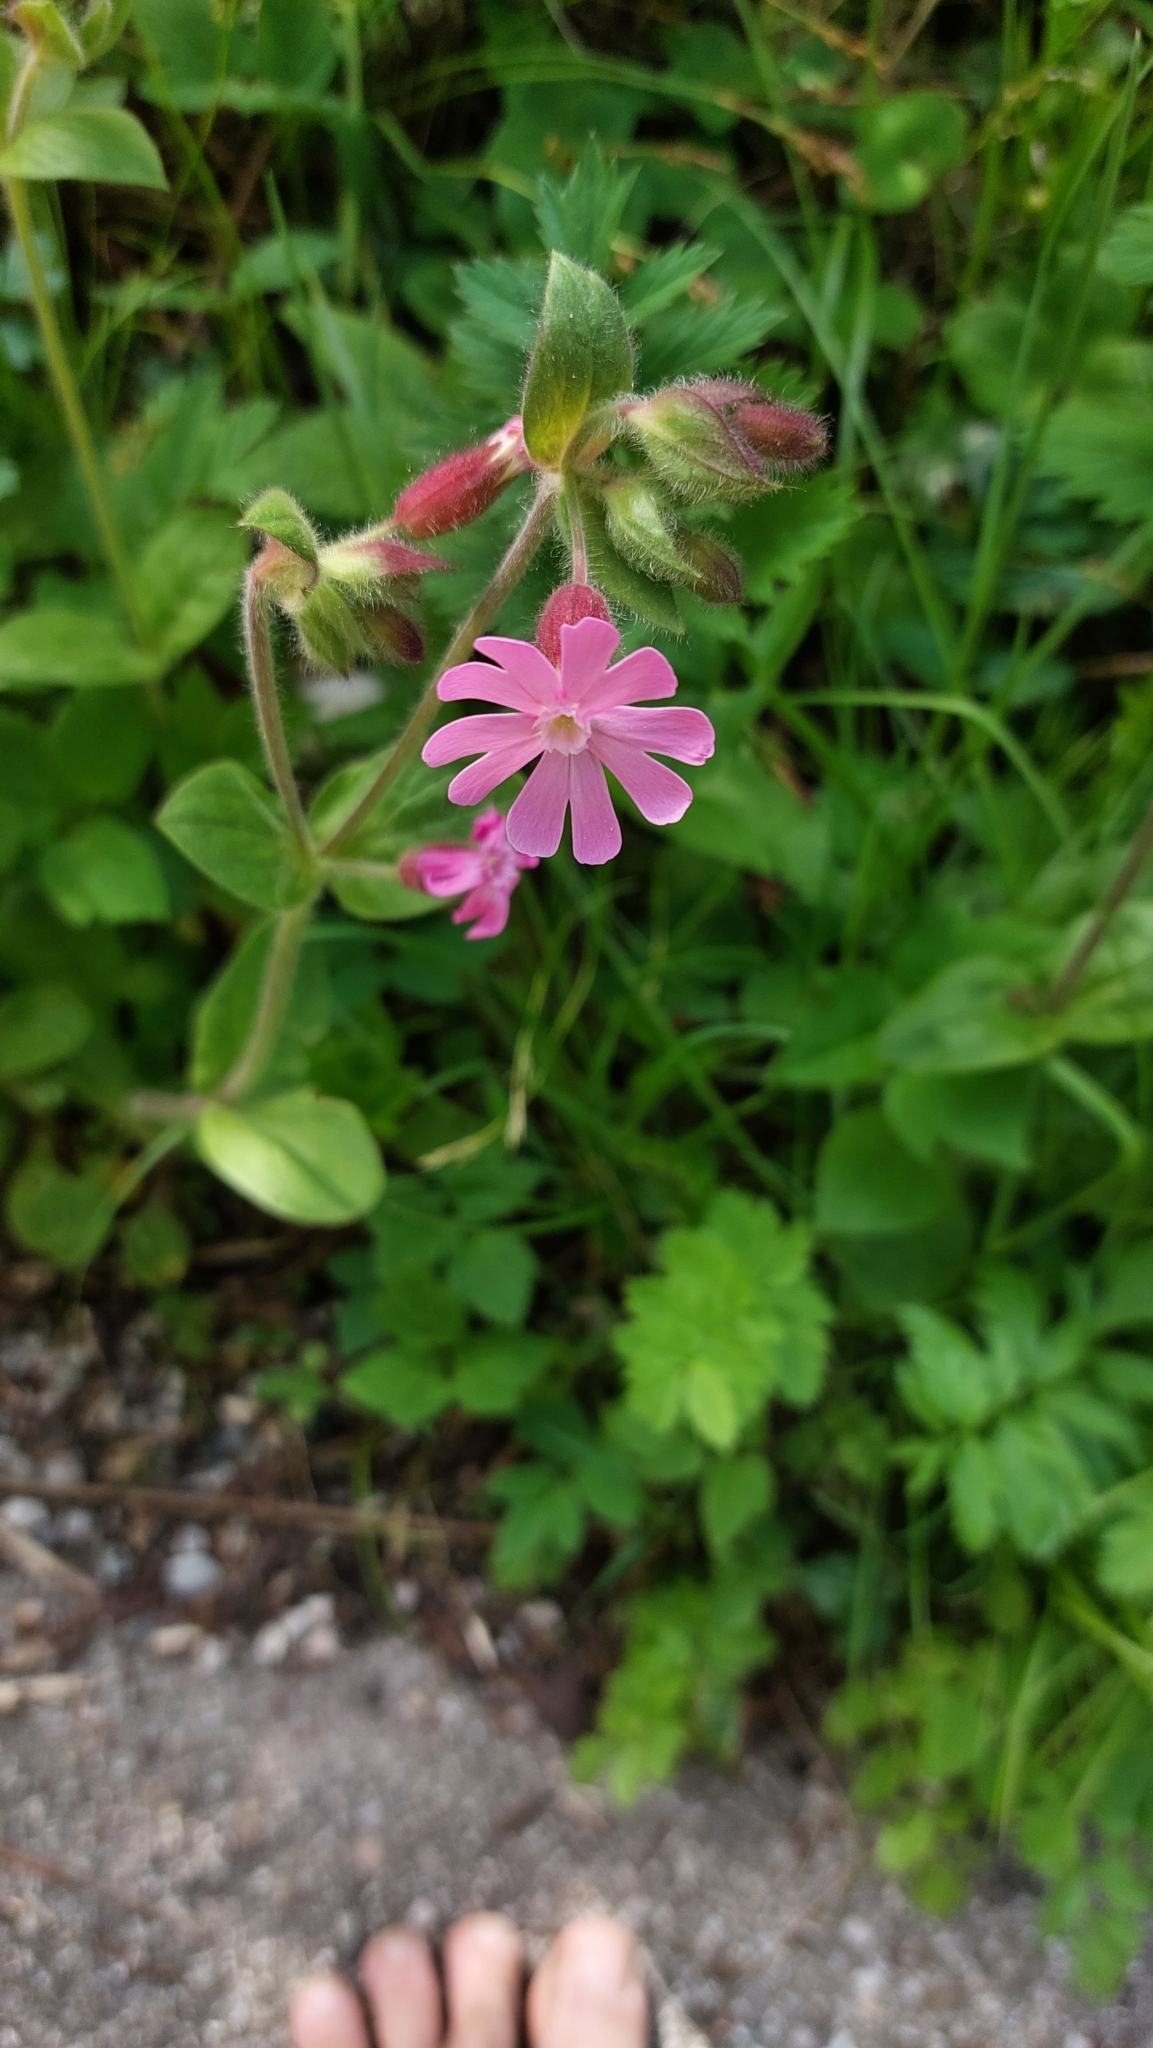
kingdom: Plantae
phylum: Tracheophyta
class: Magnoliopsida
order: Caryophyllales
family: Caryophyllaceae
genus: Silene
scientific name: Silene dioica
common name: Red campion
